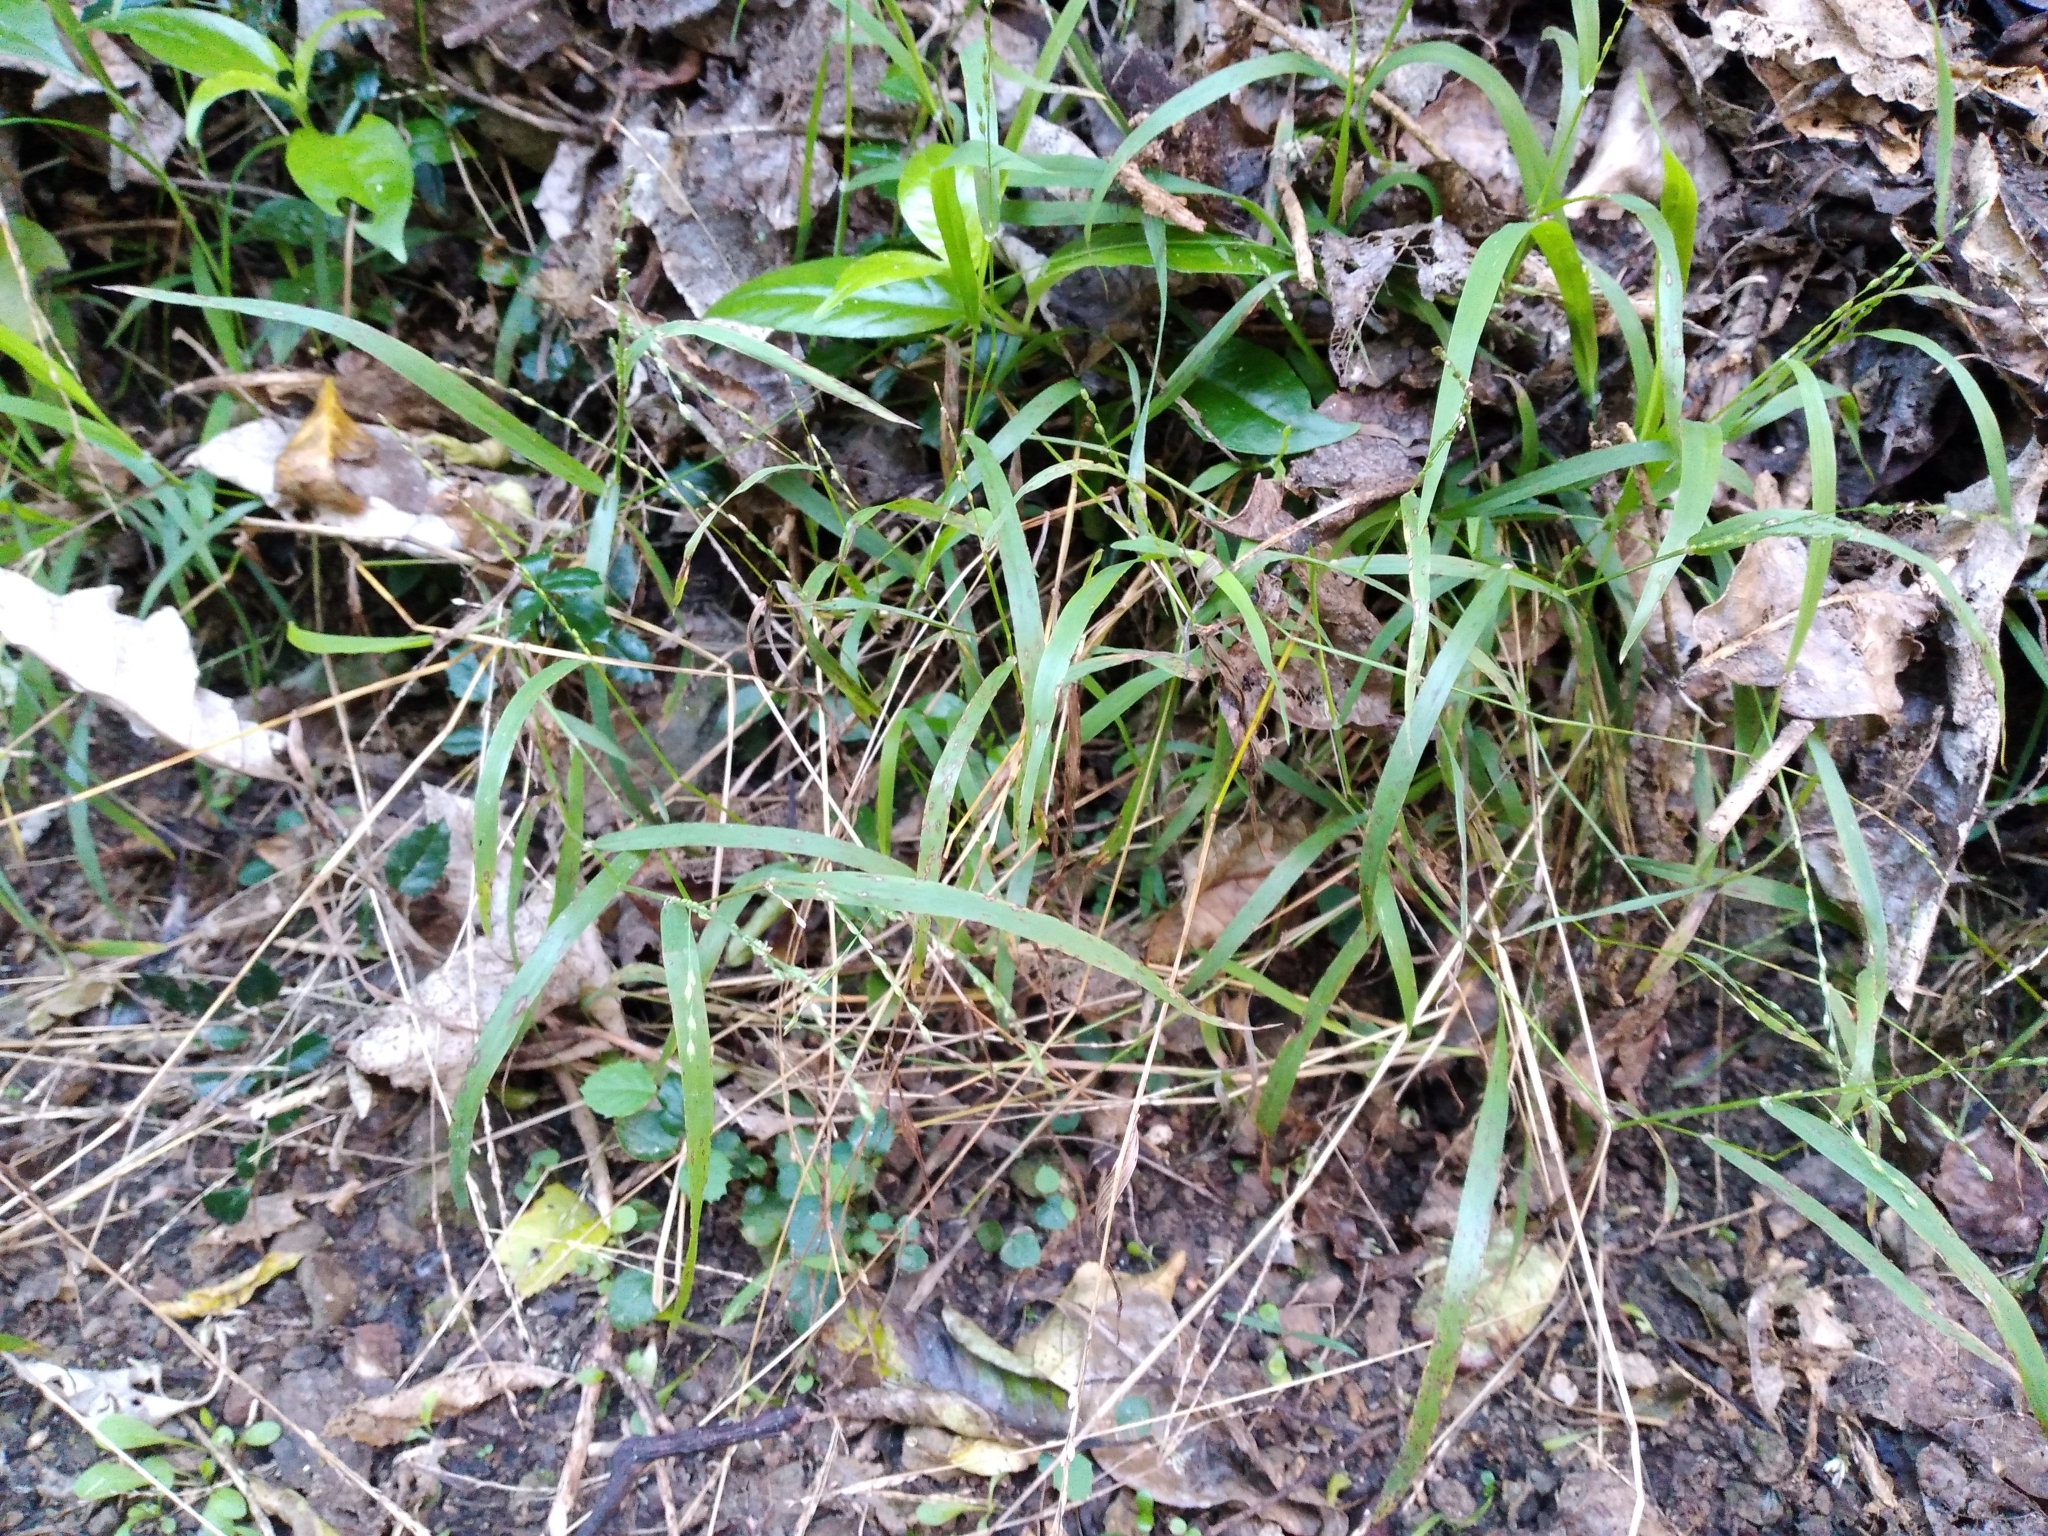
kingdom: Plantae
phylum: Tracheophyta
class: Liliopsida
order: Poales
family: Poaceae
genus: Ehrharta
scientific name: Ehrharta erecta
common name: Panic veldtgrass
